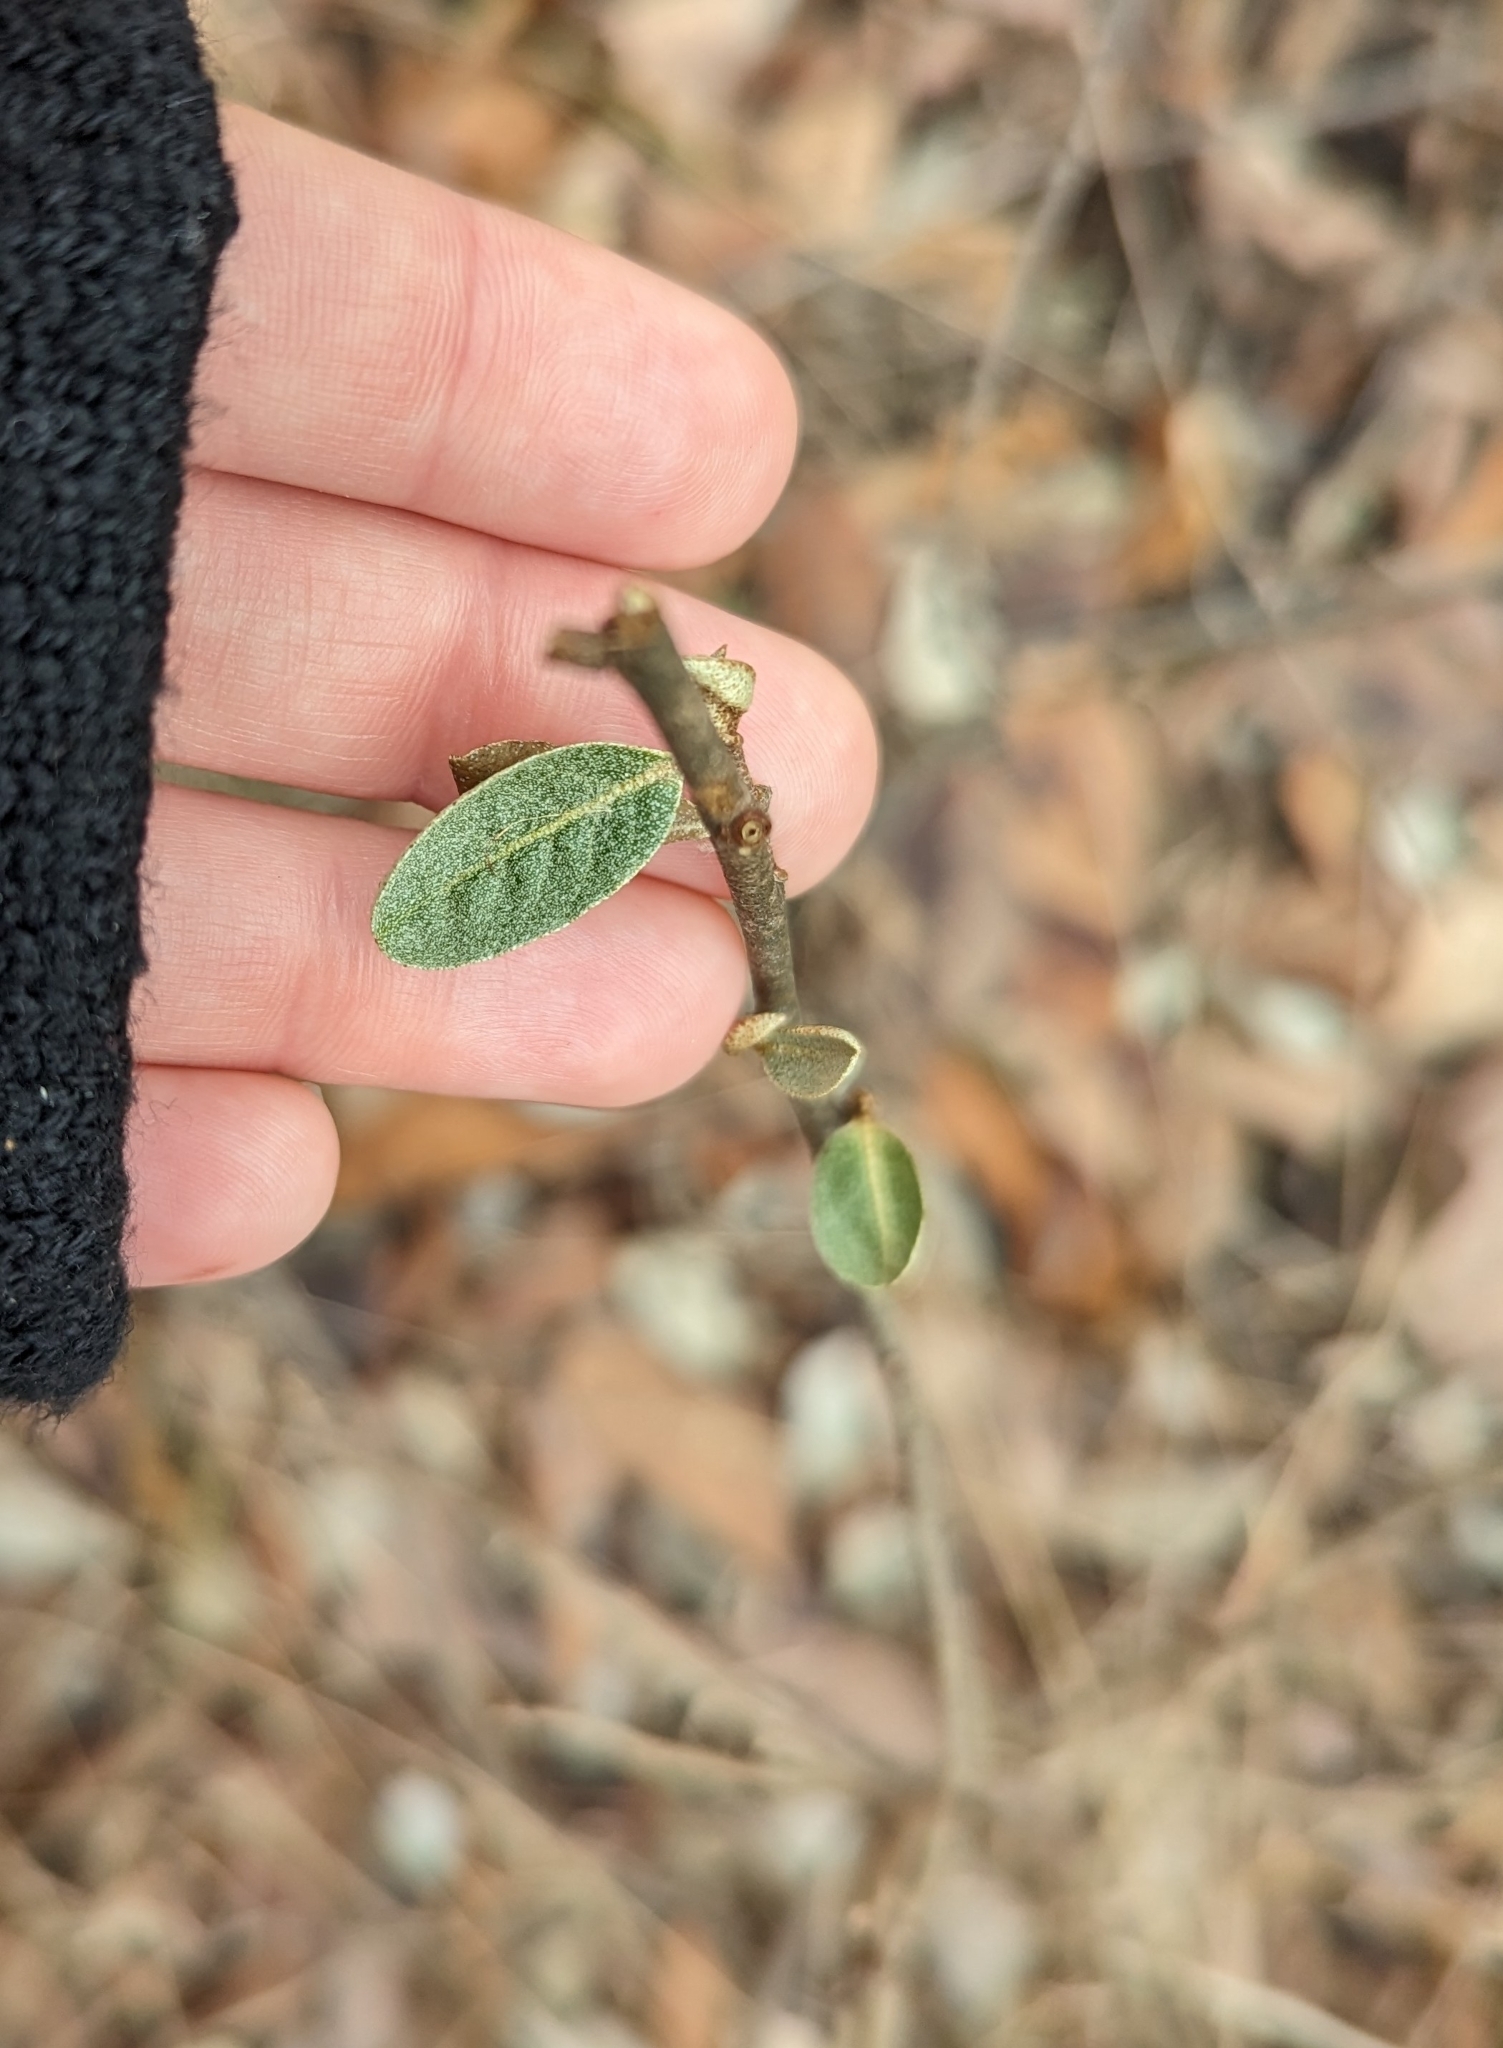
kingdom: Plantae
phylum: Tracheophyta
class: Magnoliopsida
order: Rosales
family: Elaeagnaceae
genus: Elaeagnus
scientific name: Elaeagnus umbellata
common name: Autumn olive
